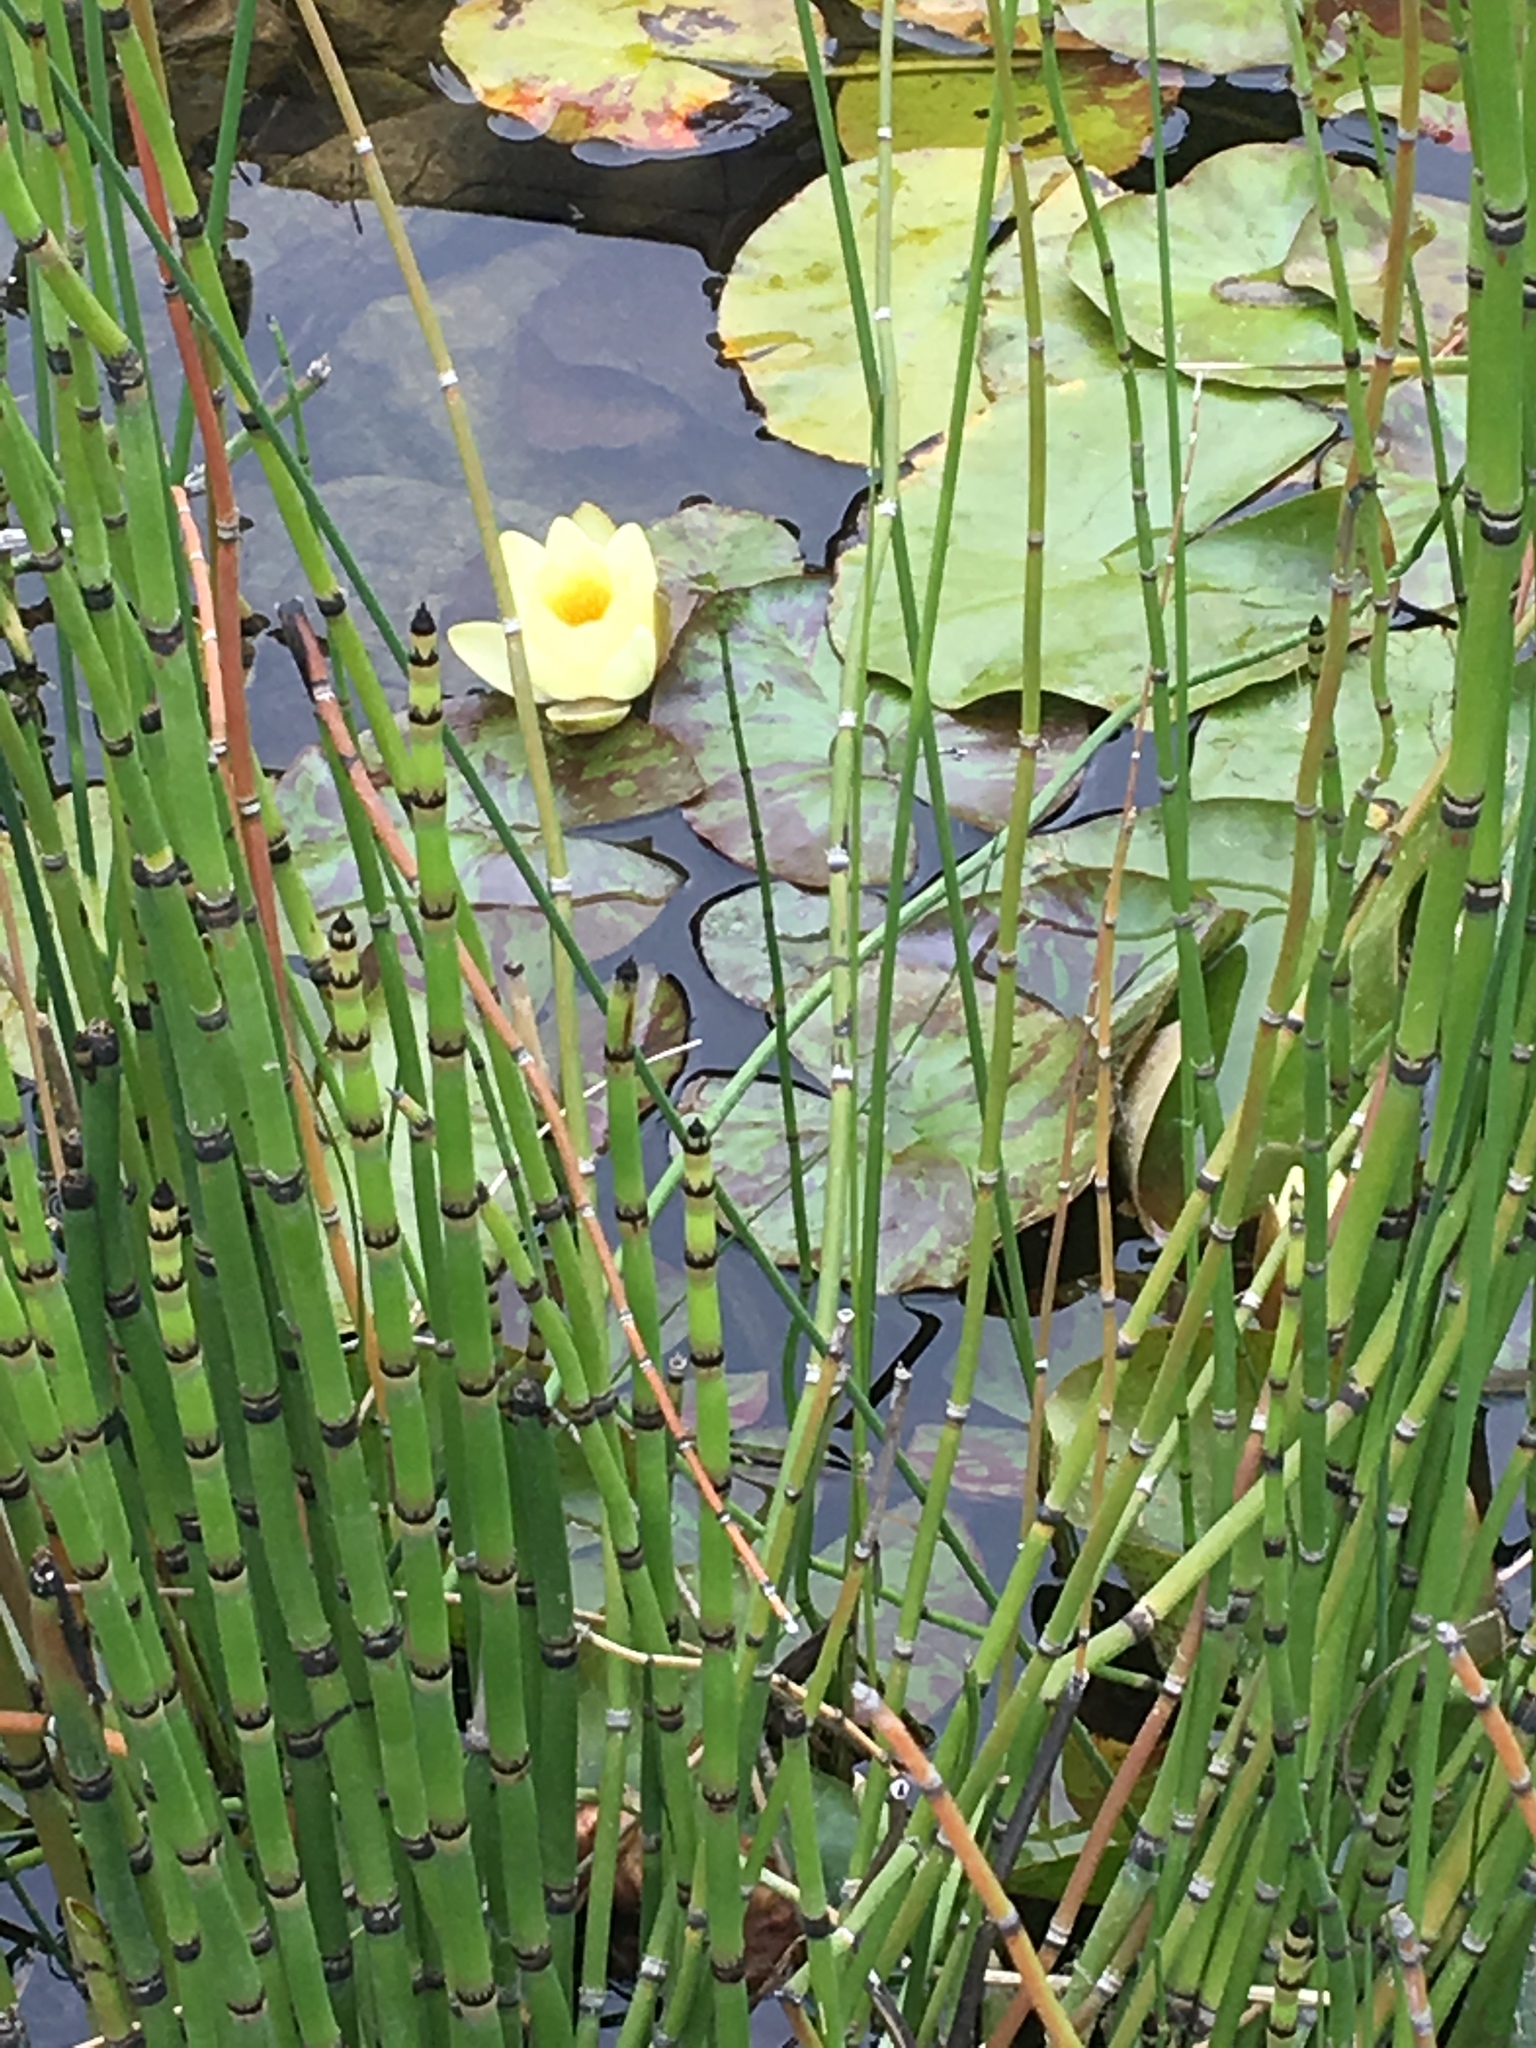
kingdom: Plantae
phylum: Tracheophyta
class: Polypodiopsida
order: Equisetales
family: Equisetaceae
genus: Equisetum
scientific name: Equisetum hyemale
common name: Rough horsetail
